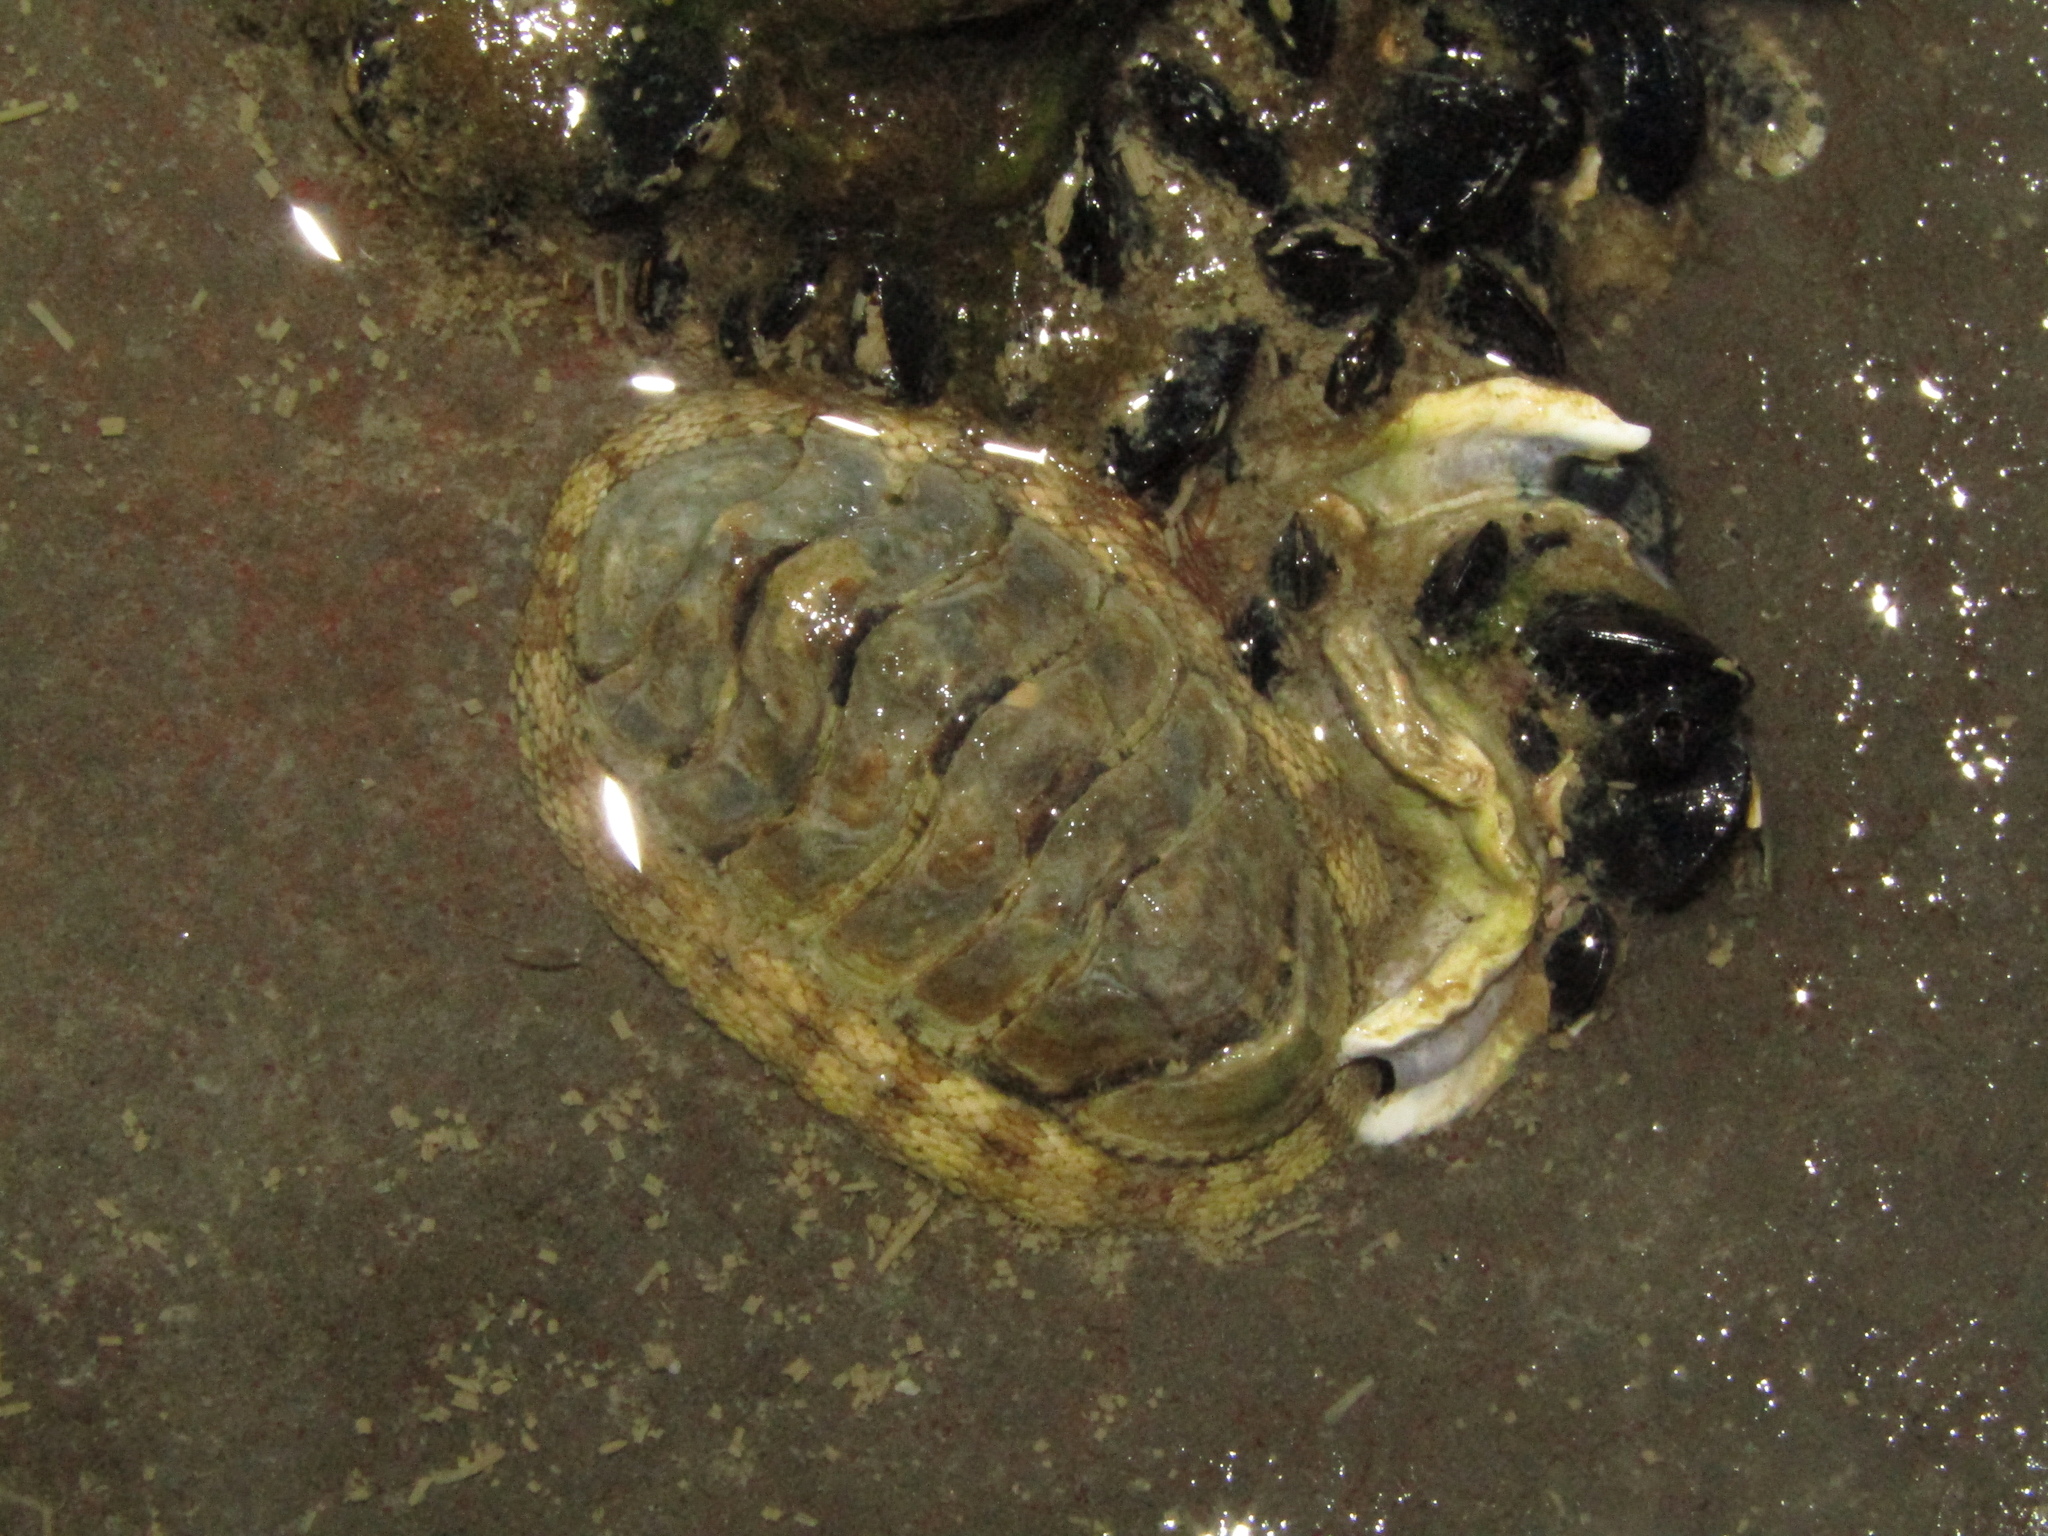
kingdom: Animalia
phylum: Mollusca
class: Polyplacophora
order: Chitonida
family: Chitonidae
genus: Sypharochiton
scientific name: Sypharochiton pelliserpentis
